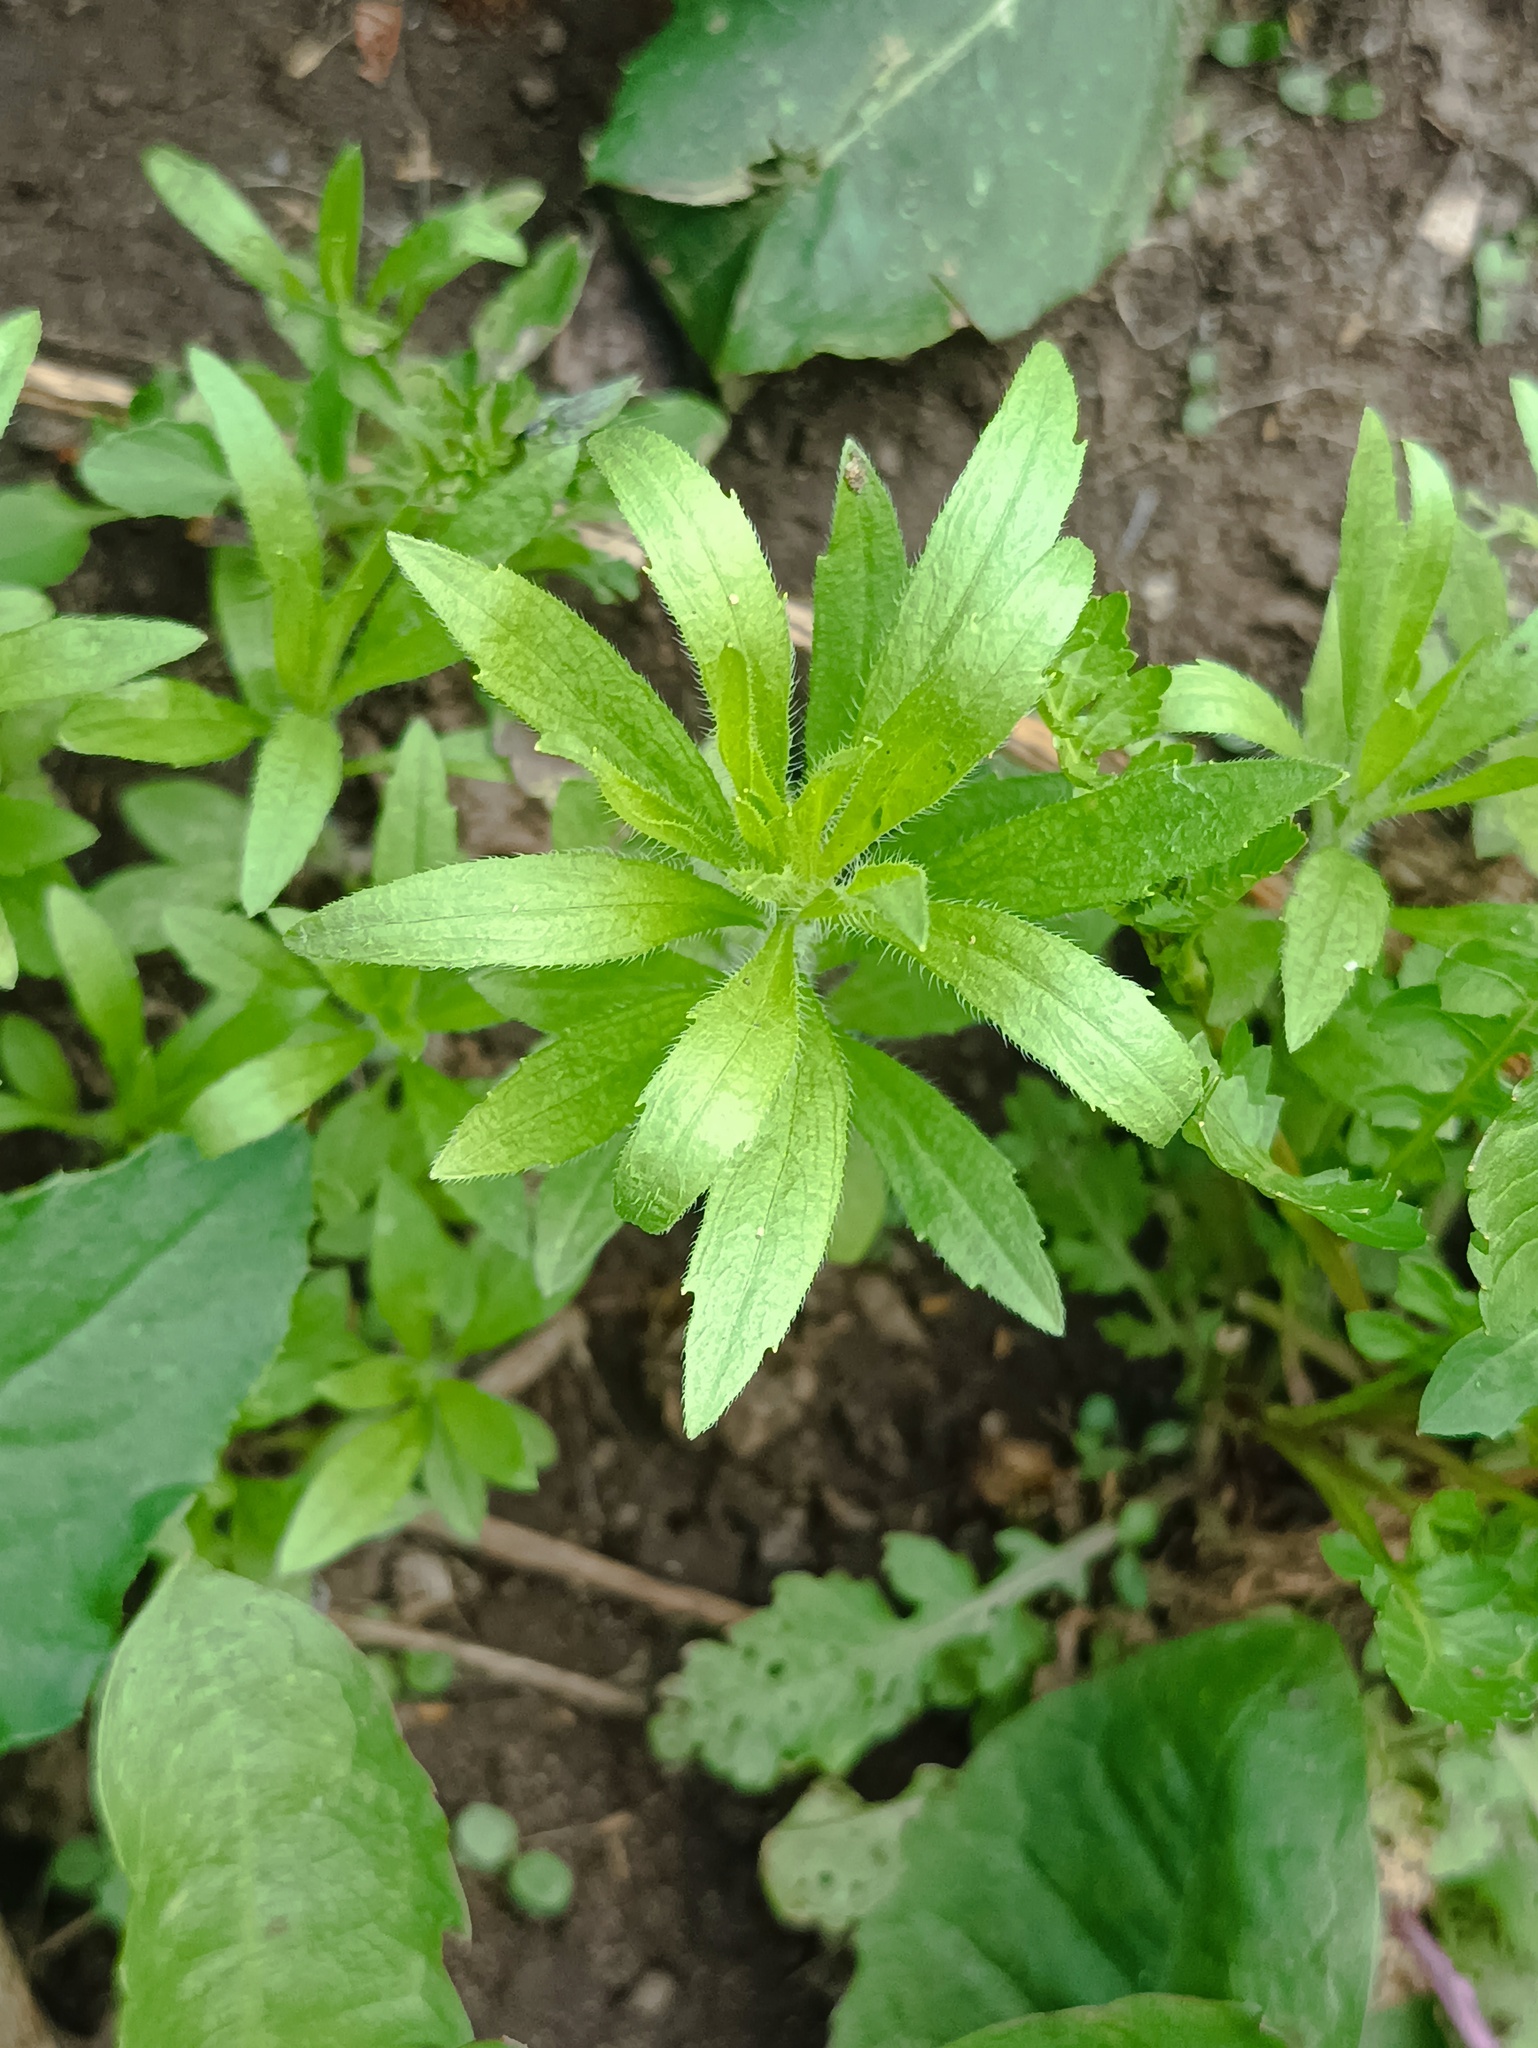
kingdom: Plantae
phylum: Tracheophyta
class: Magnoliopsida
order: Asterales
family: Asteraceae
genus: Erigeron
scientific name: Erigeron canadensis
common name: Canadian fleabane
